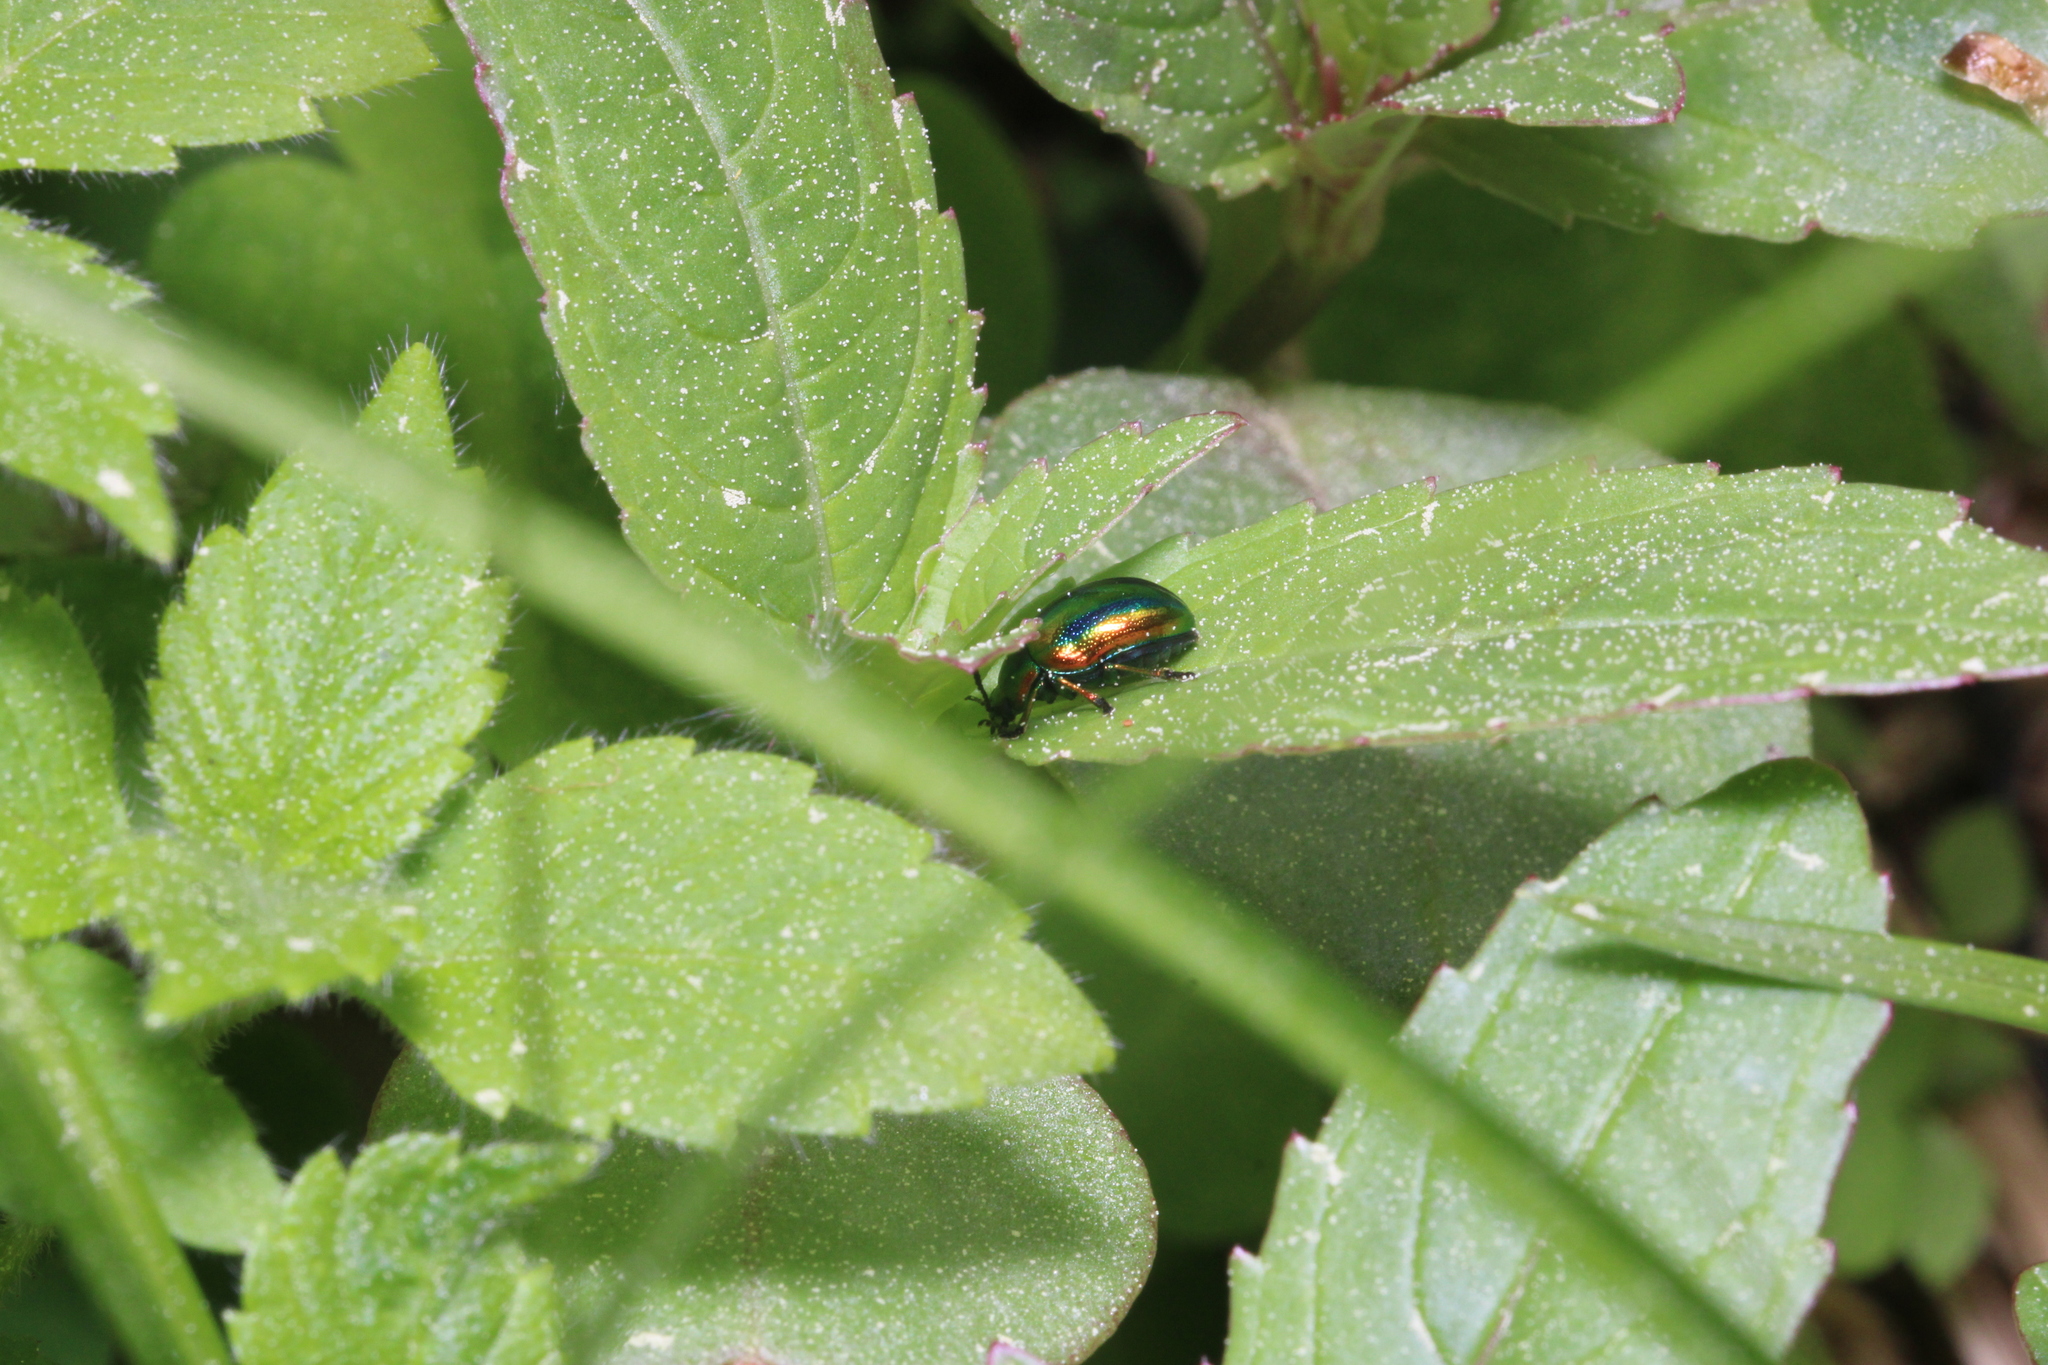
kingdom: Animalia
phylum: Arthropoda
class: Insecta
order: Coleoptera
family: Chrysomelidae
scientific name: Chrysomelidae
